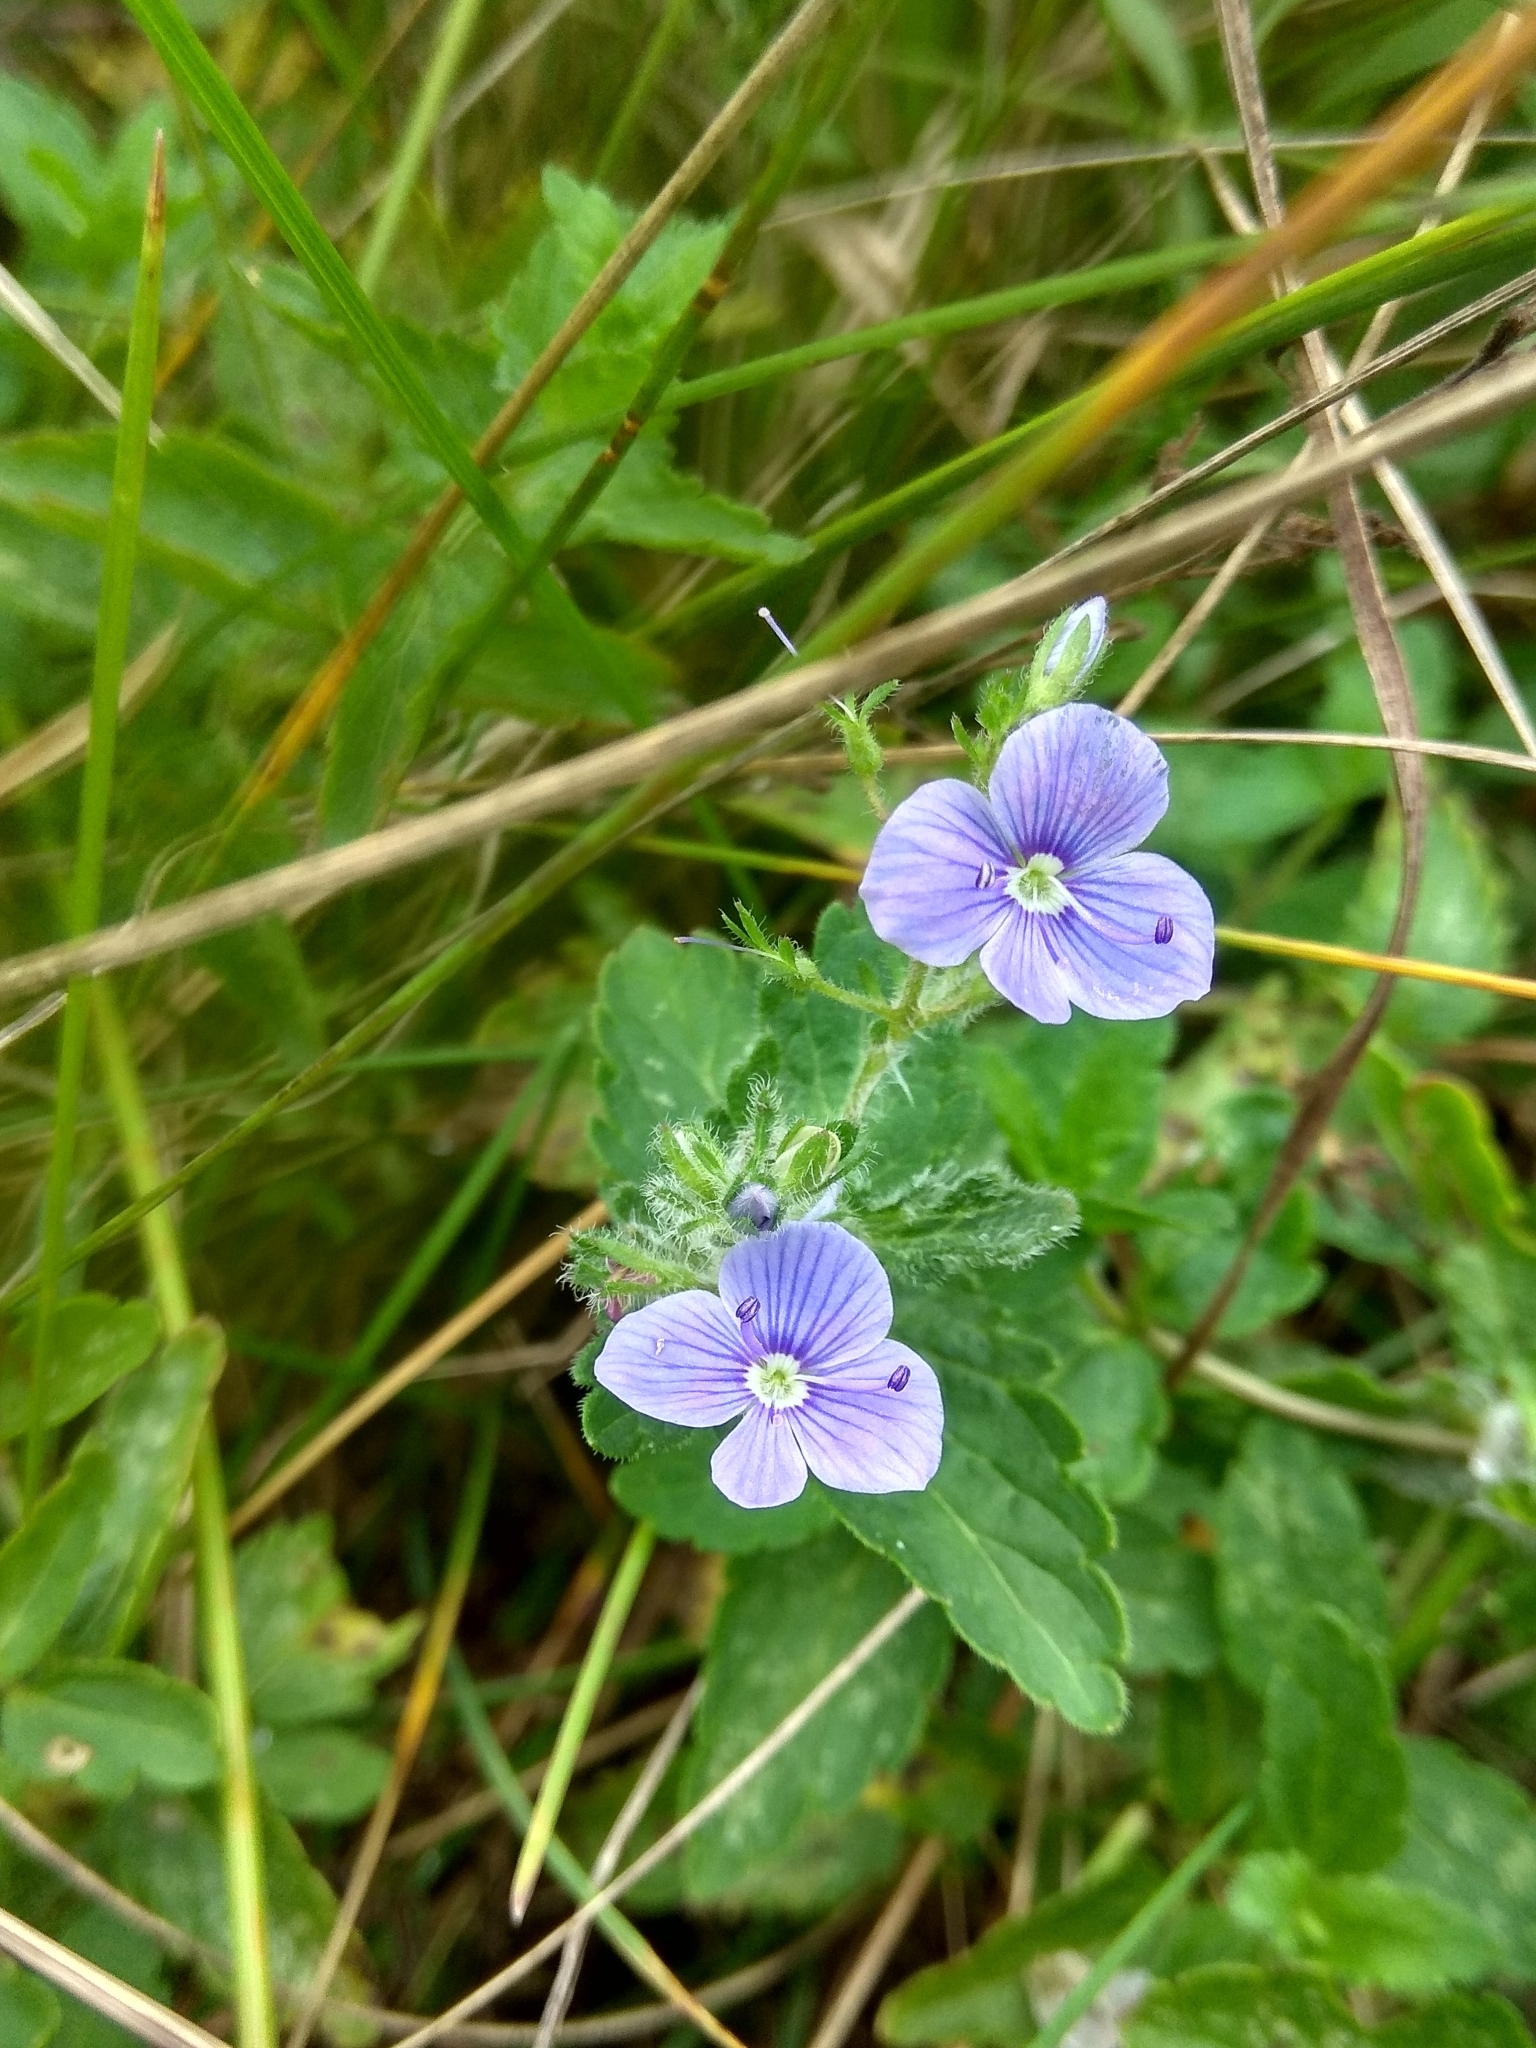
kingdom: Plantae
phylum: Tracheophyta
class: Magnoliopsida
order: Lamiales
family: Plantaginaceae
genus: Veronica
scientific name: Veronica chamaedrys
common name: Germander speedwell
